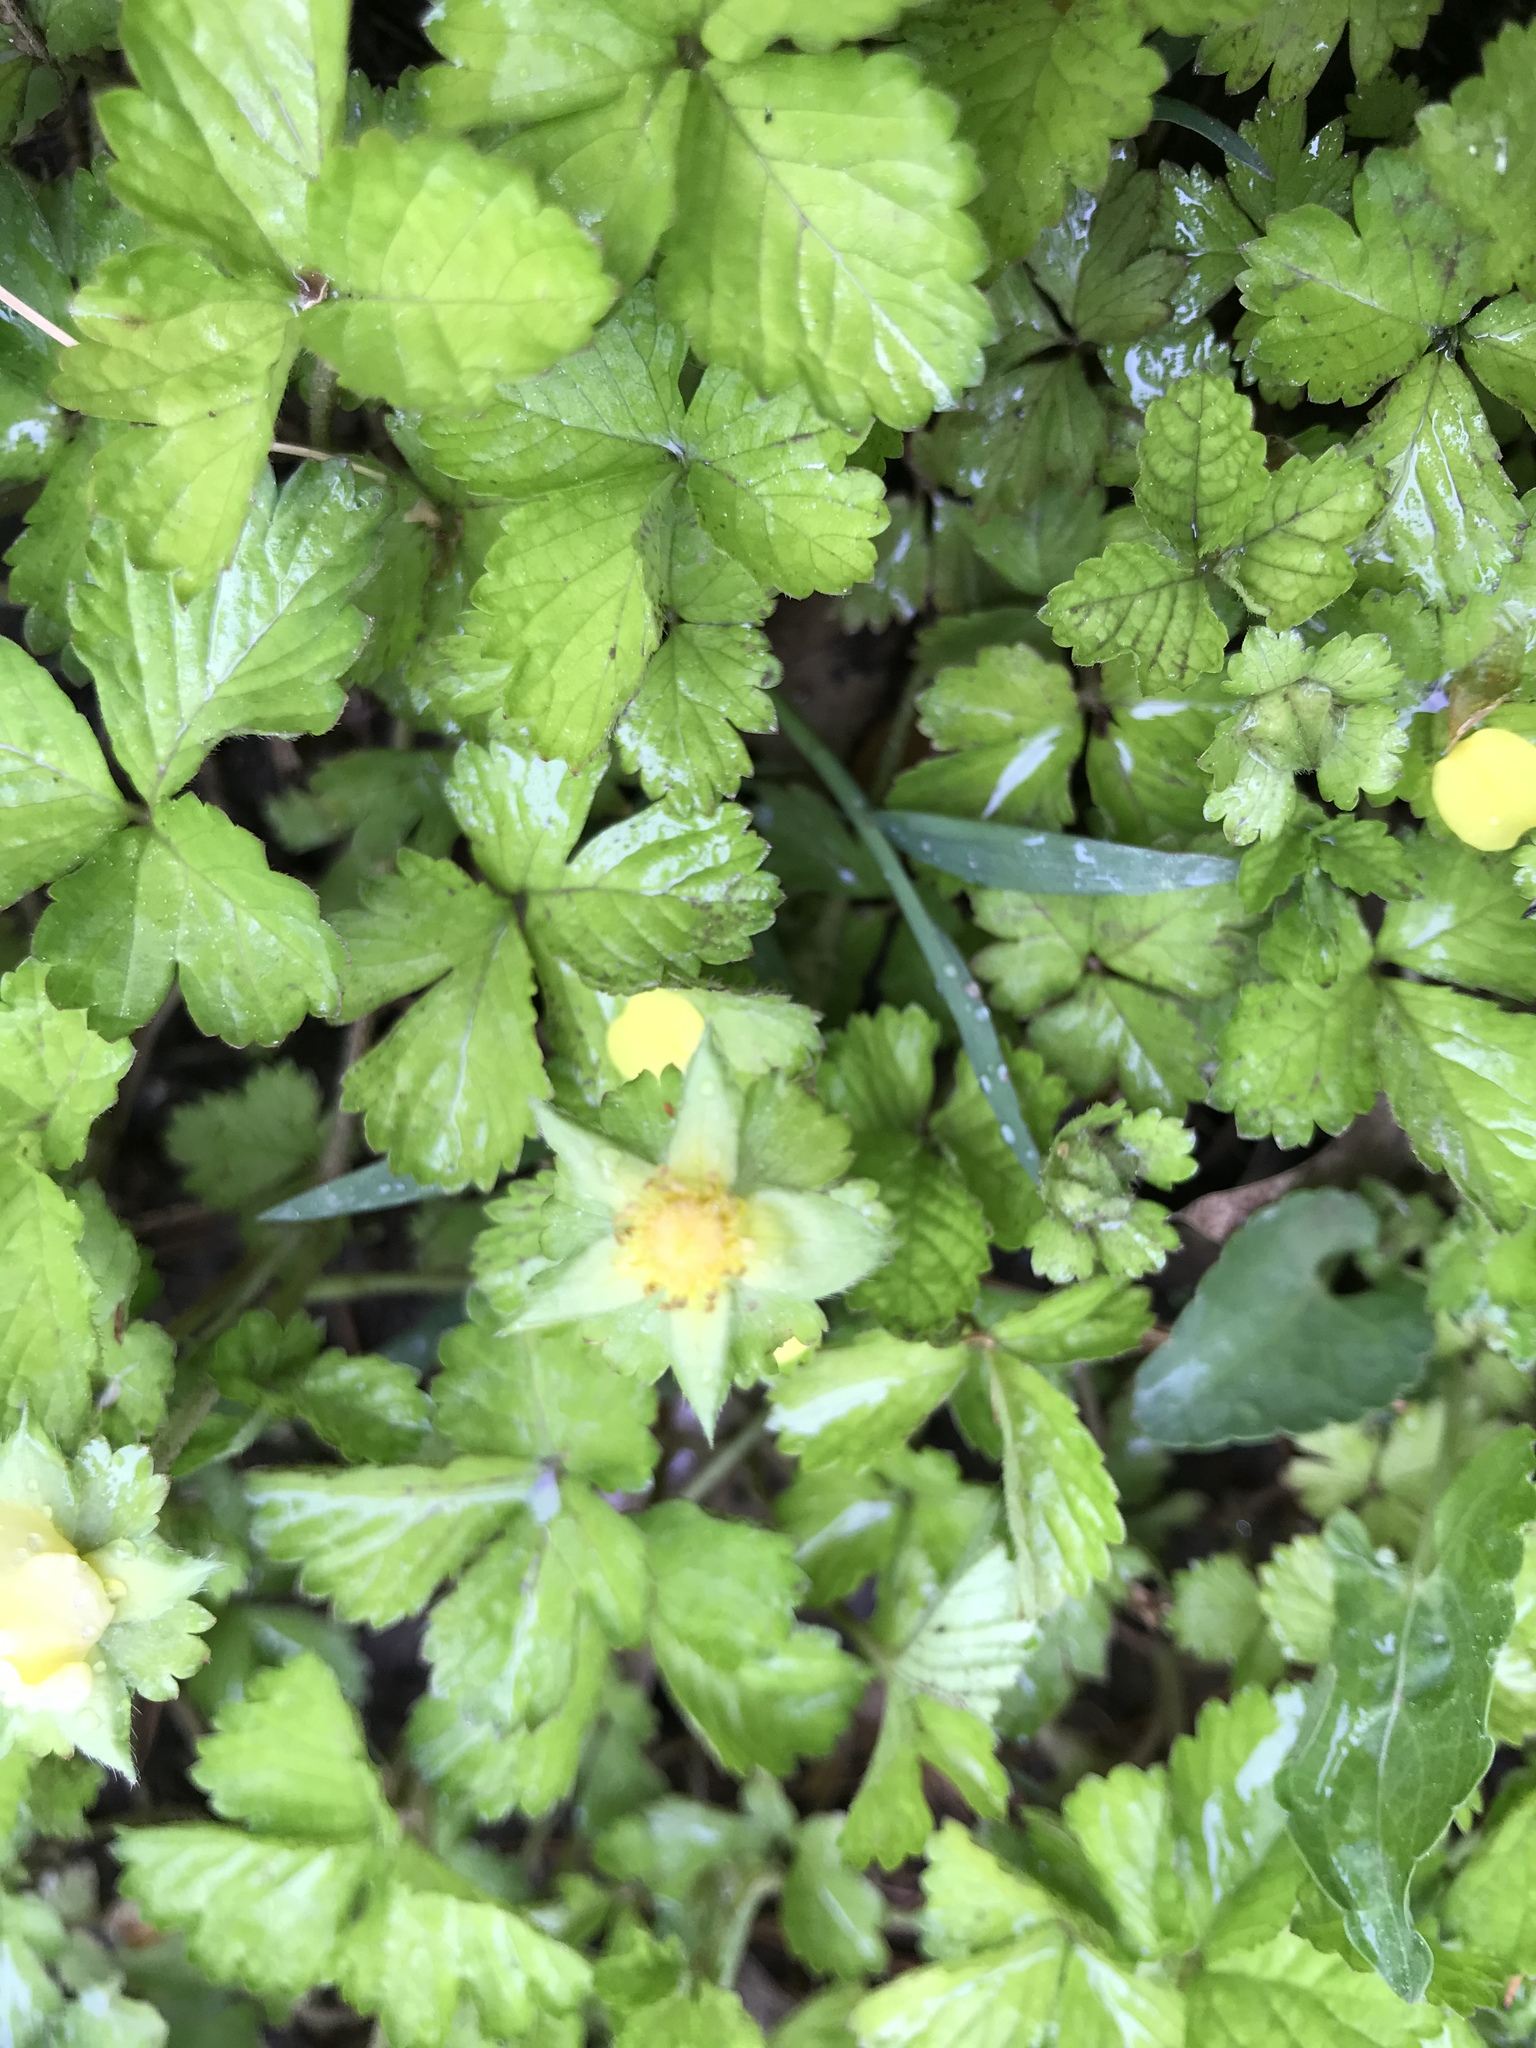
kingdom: Plantae
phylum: Tracheophyta
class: Magnoliopsida
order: Rosales
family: Rosaceae
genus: Potentilla
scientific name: Potentilla indica
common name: Yellow-flowered strawberry
